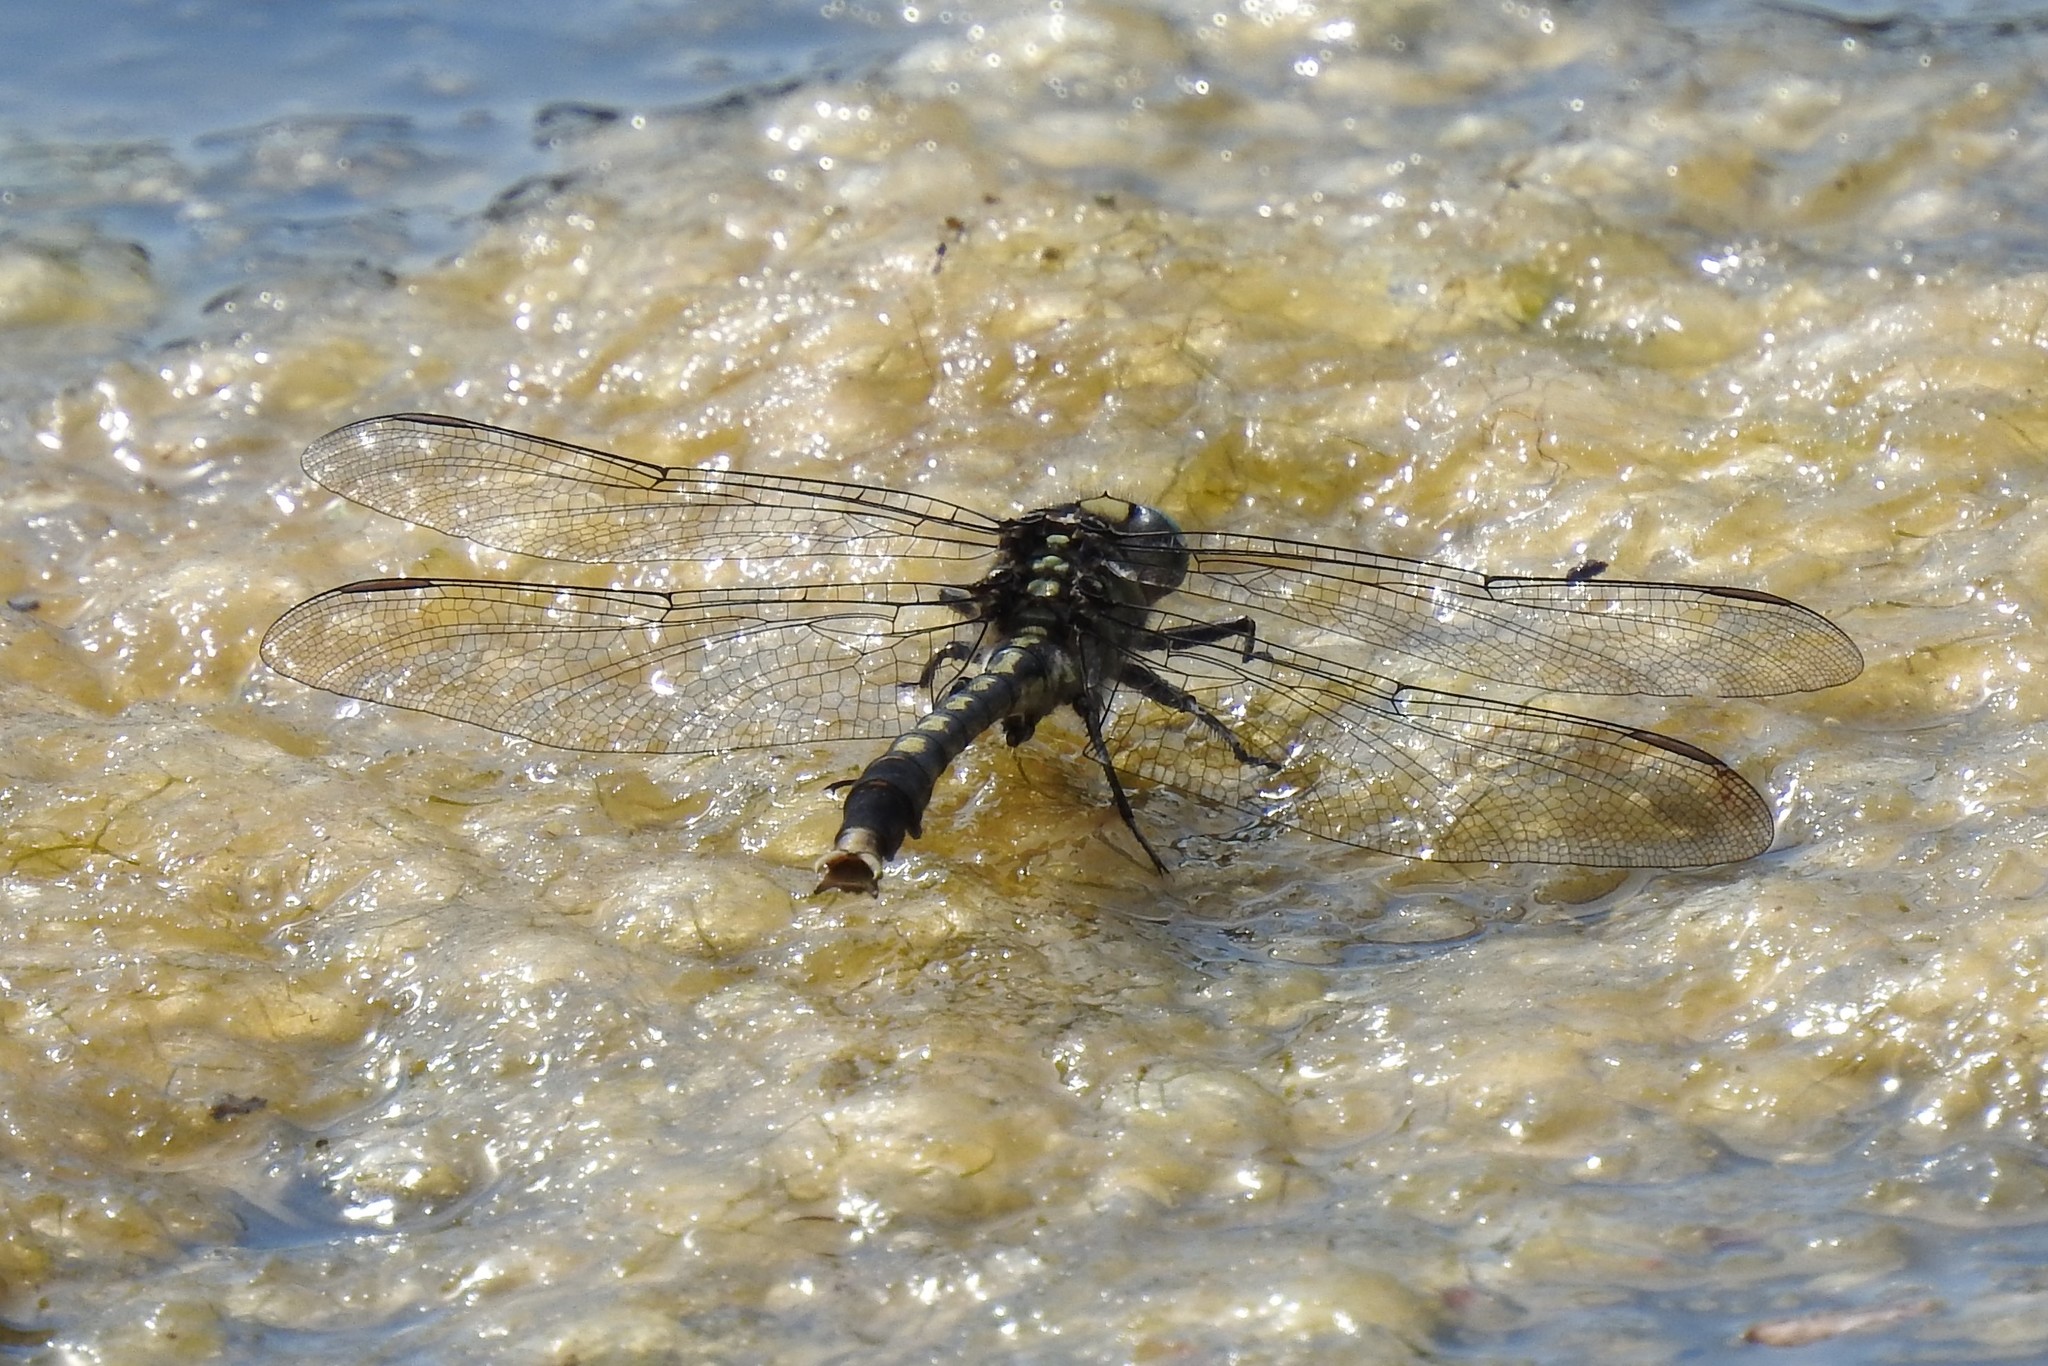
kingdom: Animalia
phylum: Arthropoda
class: Insecta
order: Odonata
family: Gomphidae
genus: Arigomphus
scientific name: Arigomphus villosipes
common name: Unicorn clubtail
